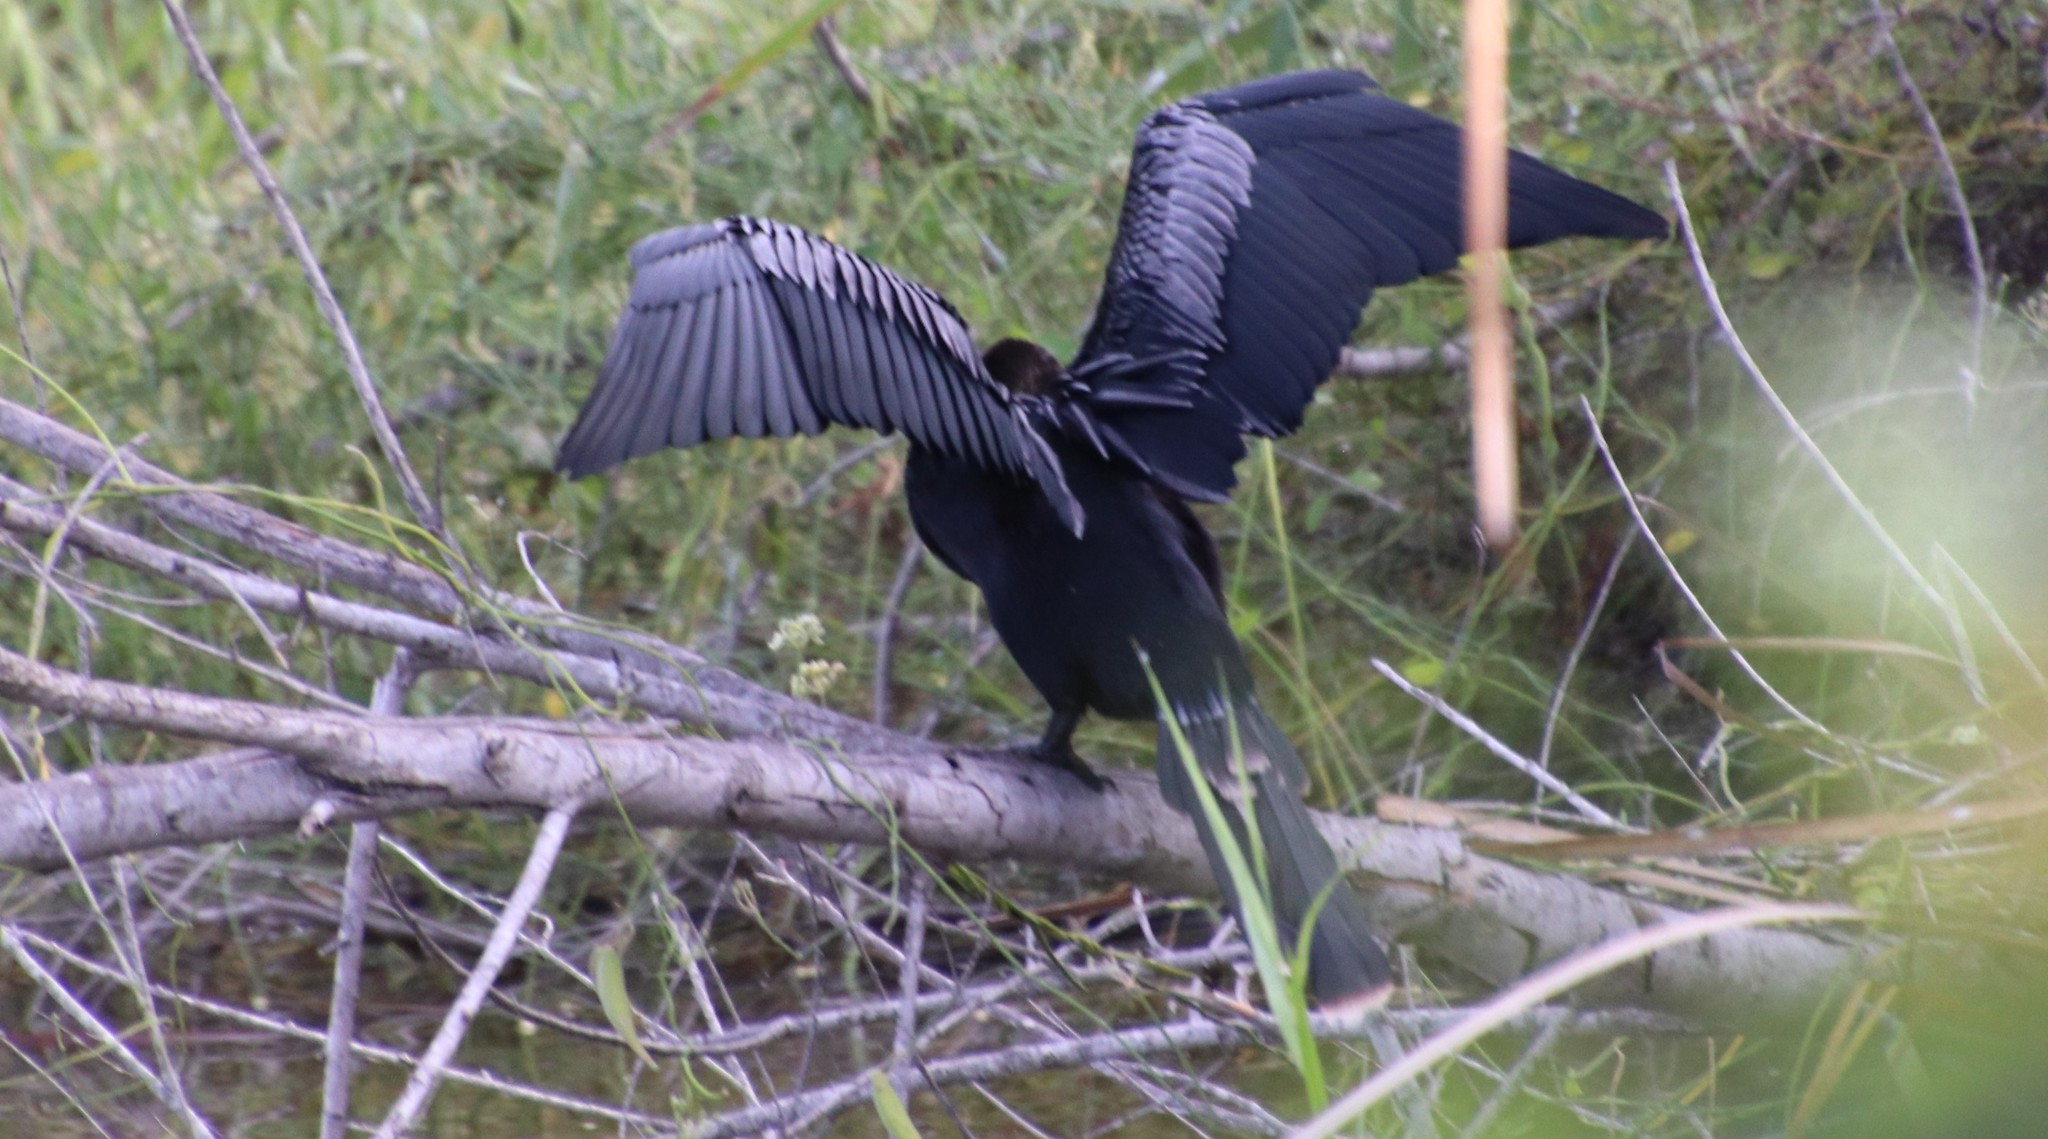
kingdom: Animalia
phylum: Chordata
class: Aves
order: Suliformes
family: Anhingidae
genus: Anhinga
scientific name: Anhinga anhinga
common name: Anhinga
